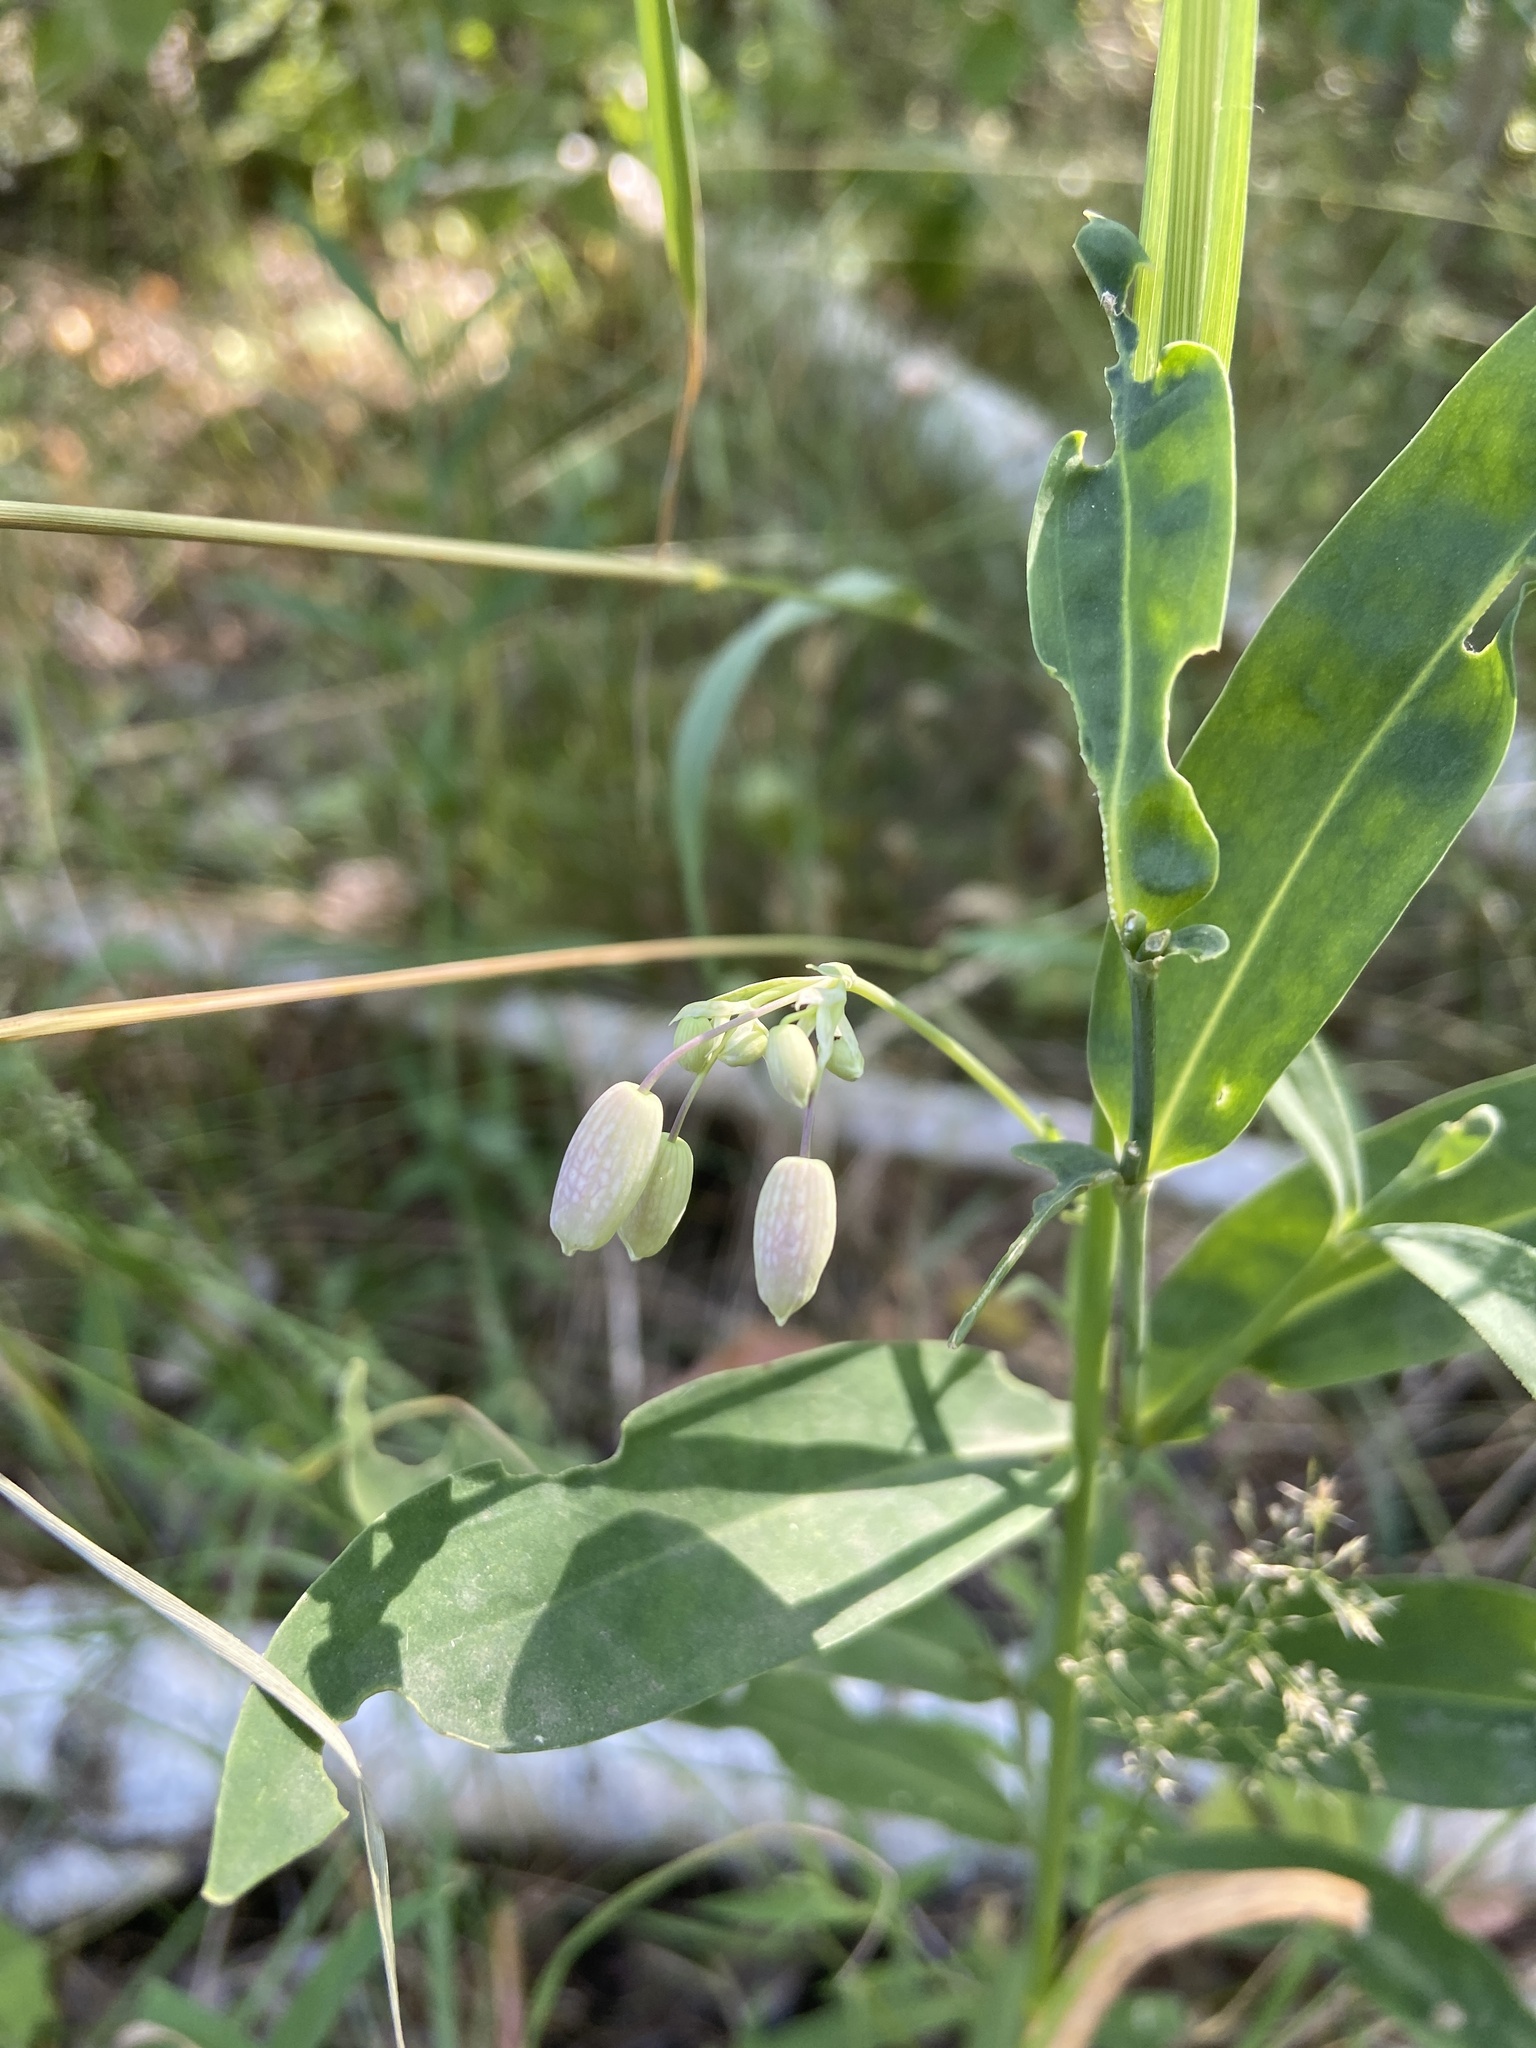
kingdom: Plantae
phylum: Tracheophyta
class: Magnoliopsida
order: Caryophyllales
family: Caryophyllaceae
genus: Silene
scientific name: Silene vulgaris
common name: Bladder campion
